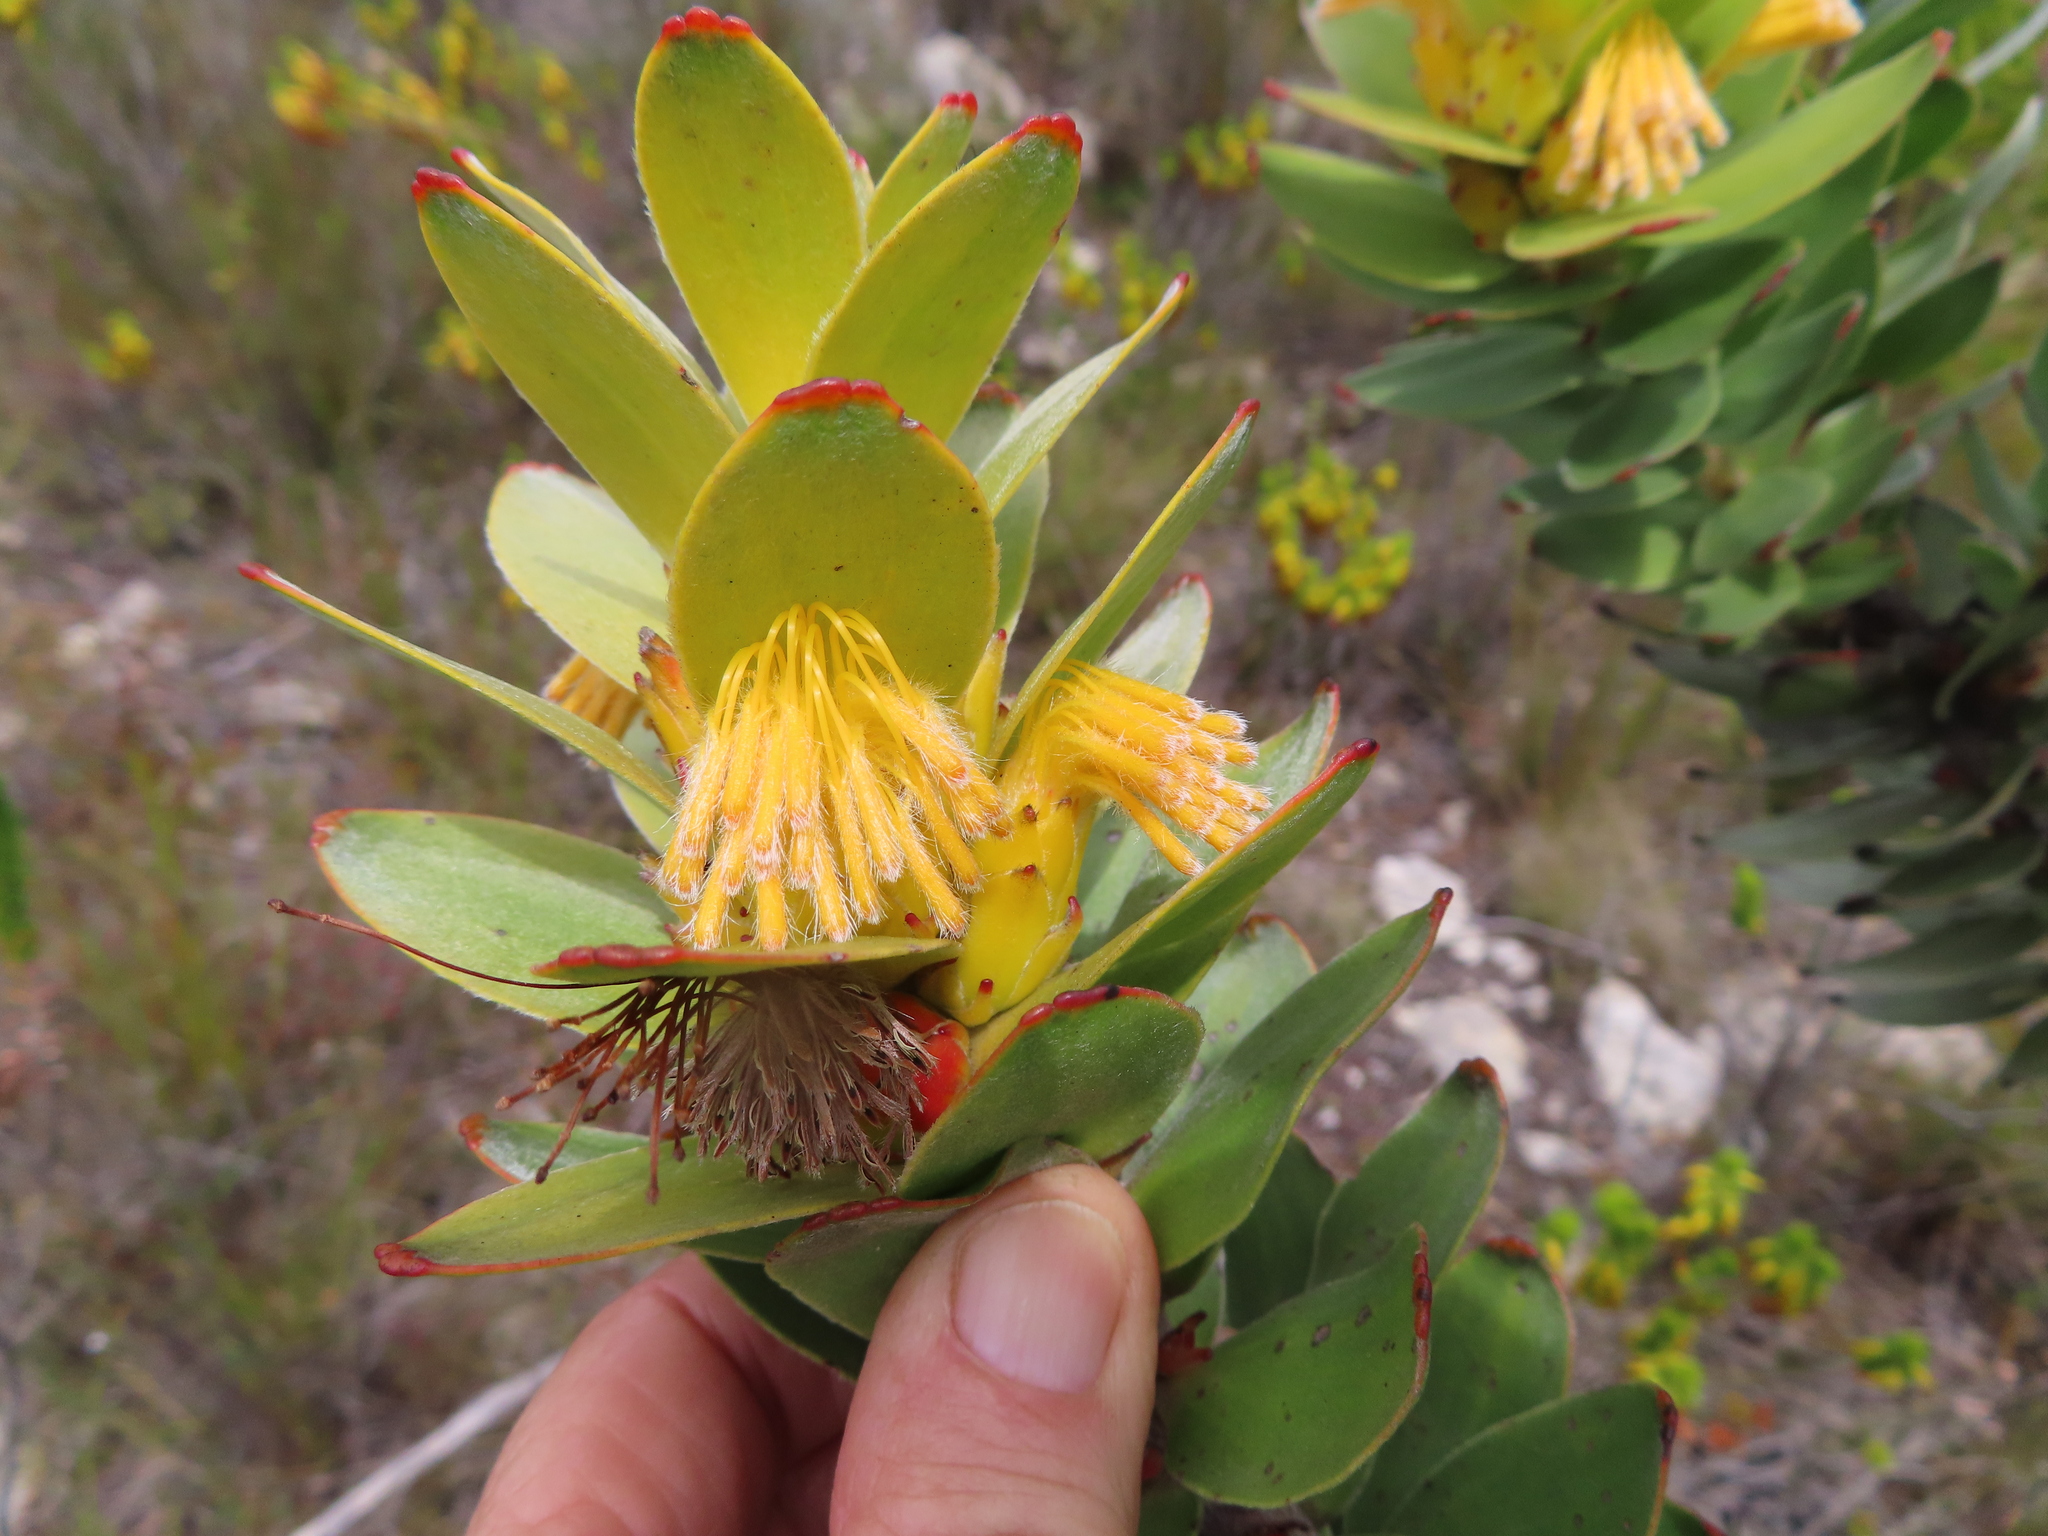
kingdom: Plantae
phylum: Tracheophyta
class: Magnoliopsida
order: Proteales
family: Proteaceae
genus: Mimetes
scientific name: Mimetes saxatilis
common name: Limestone pagoda
